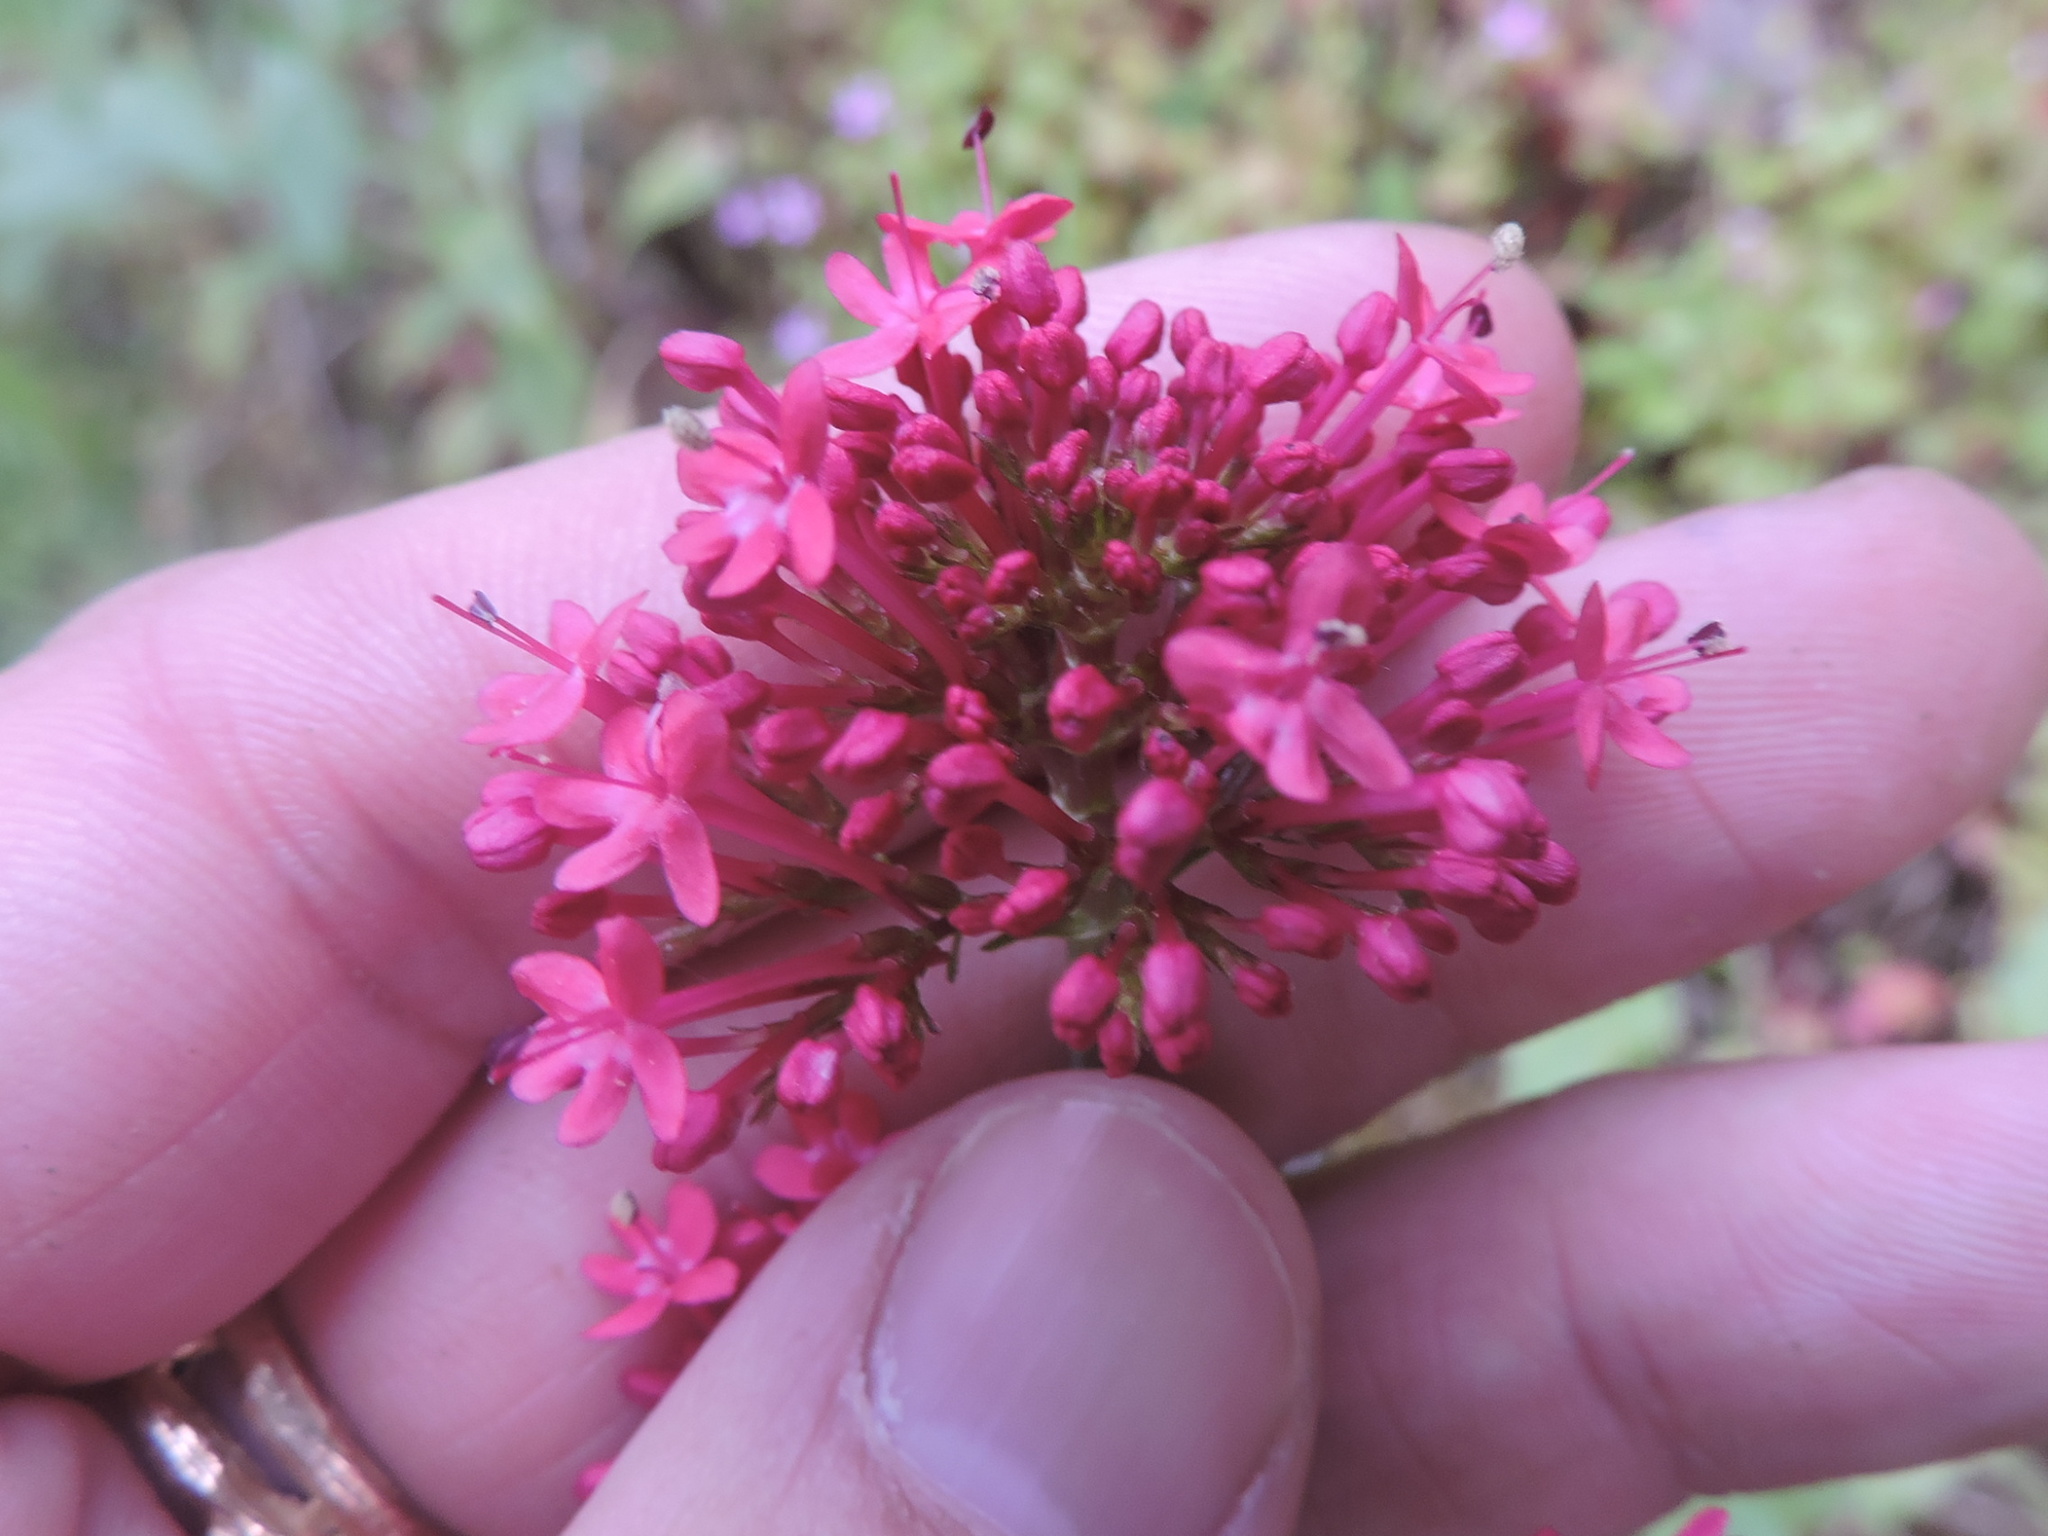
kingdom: Plantae
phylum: Tracheophyta
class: Magnoliopsida
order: Dipsacales
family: Caprifoliaceae
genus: Centranthus
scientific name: Centranthus ruber
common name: Red valerian
